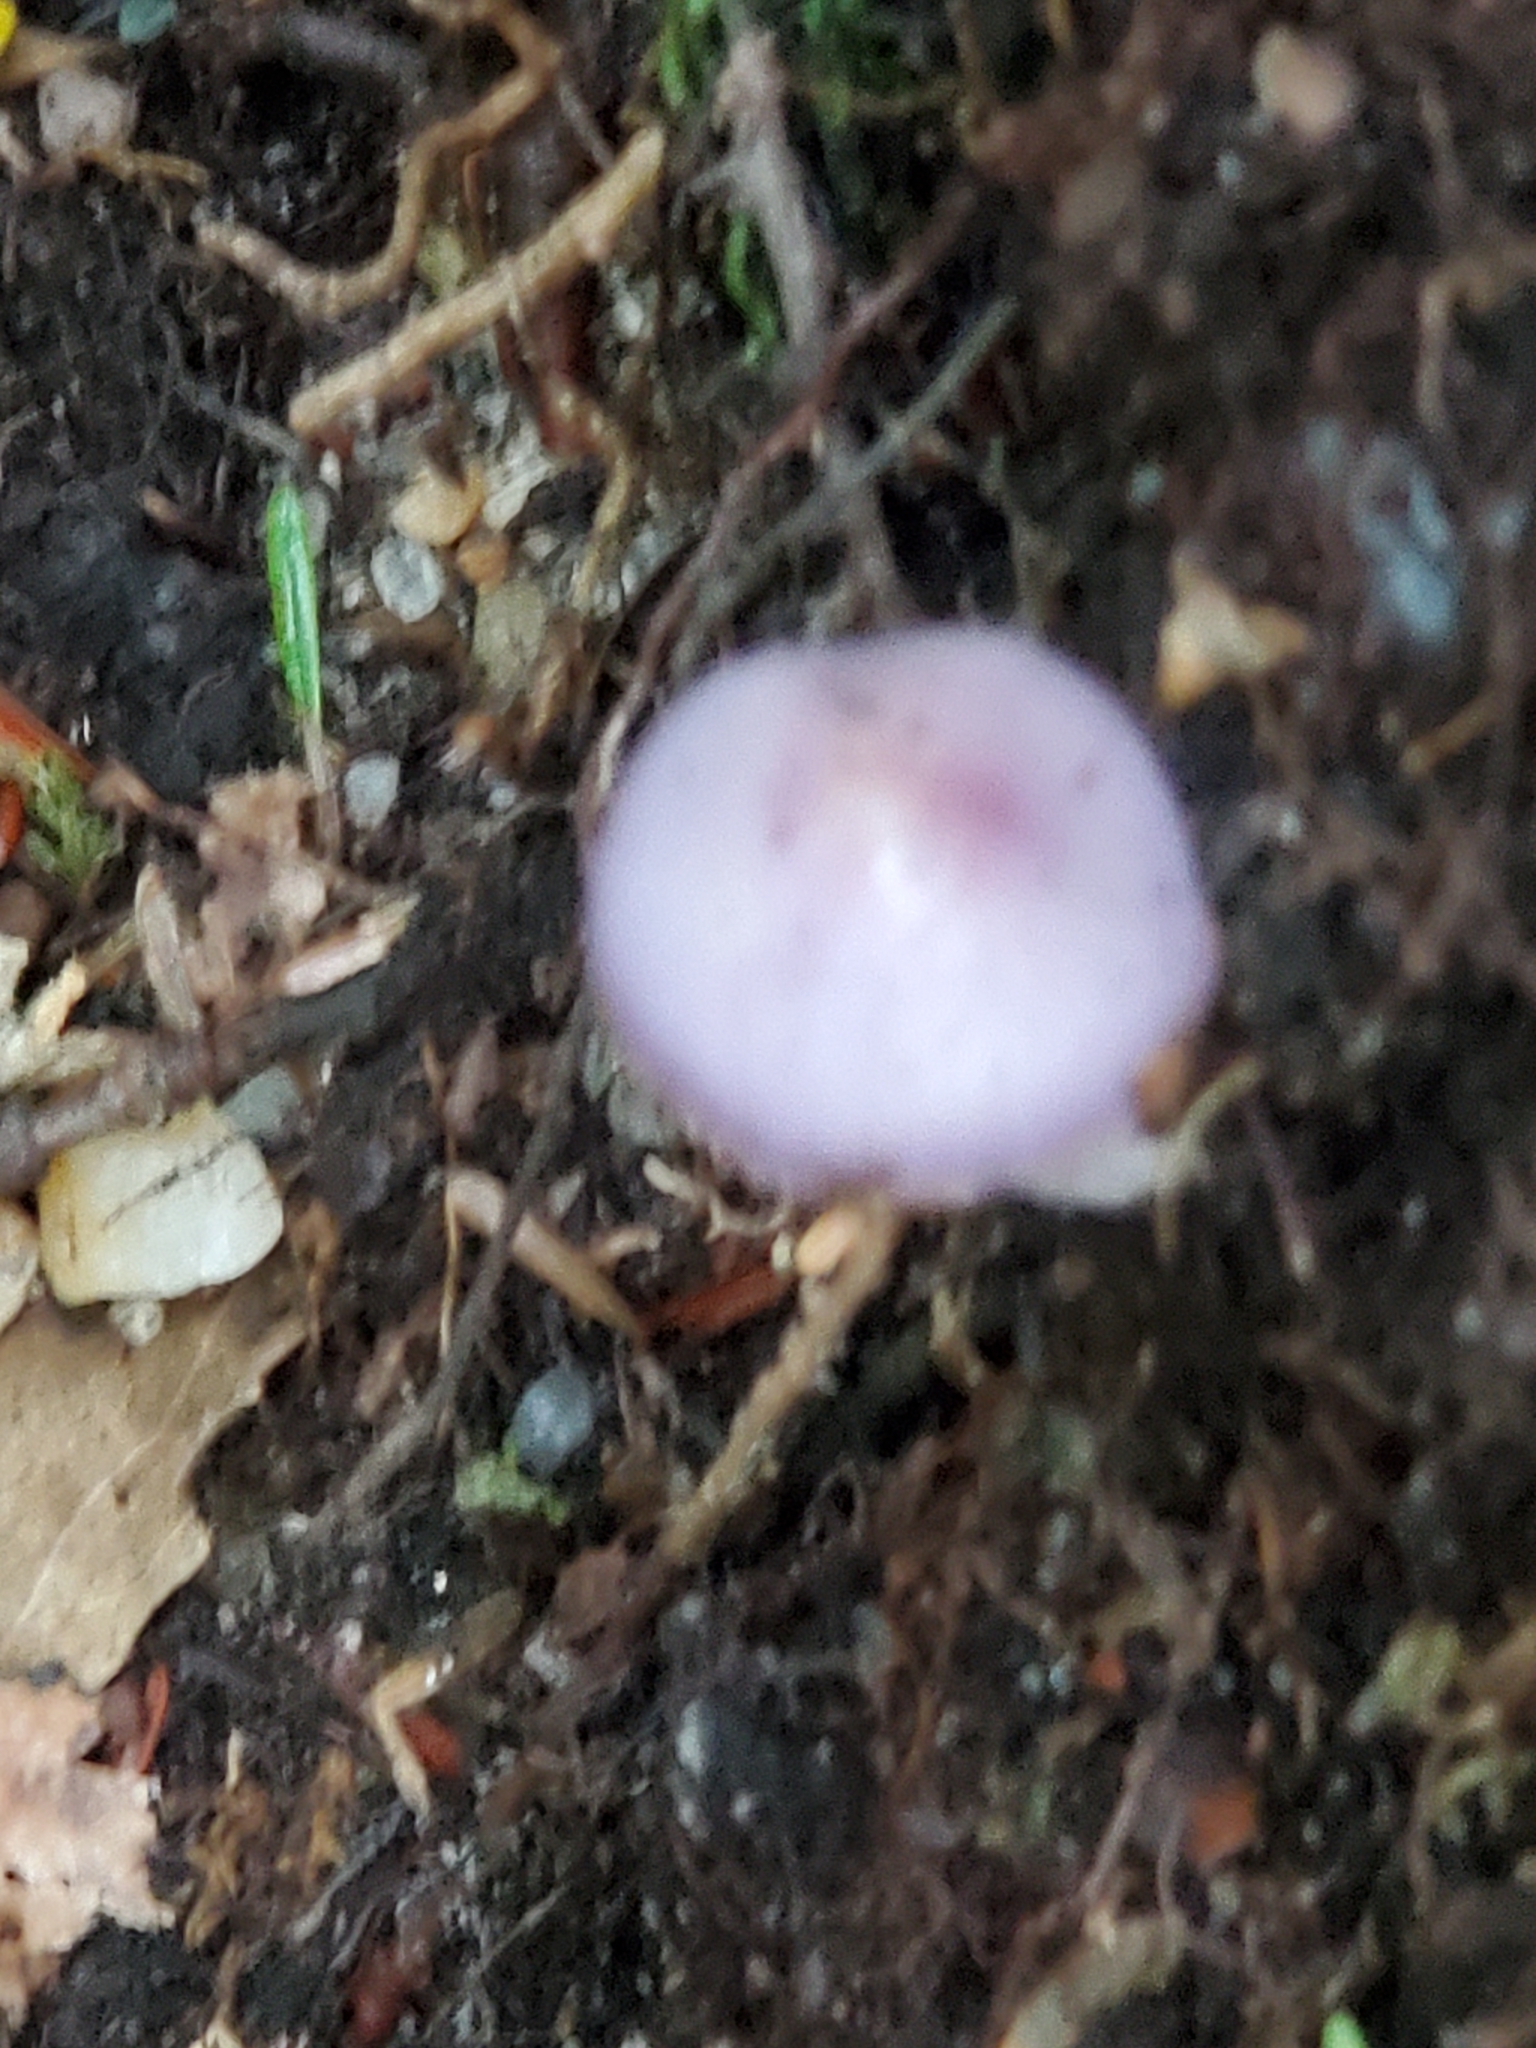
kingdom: Fungi
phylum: Basidiomycota
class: Agaricomycetes
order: Agaricales
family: Cortinariaceae
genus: Cortinarius
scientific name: Cortinarius iodes
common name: Viscid violet cort
